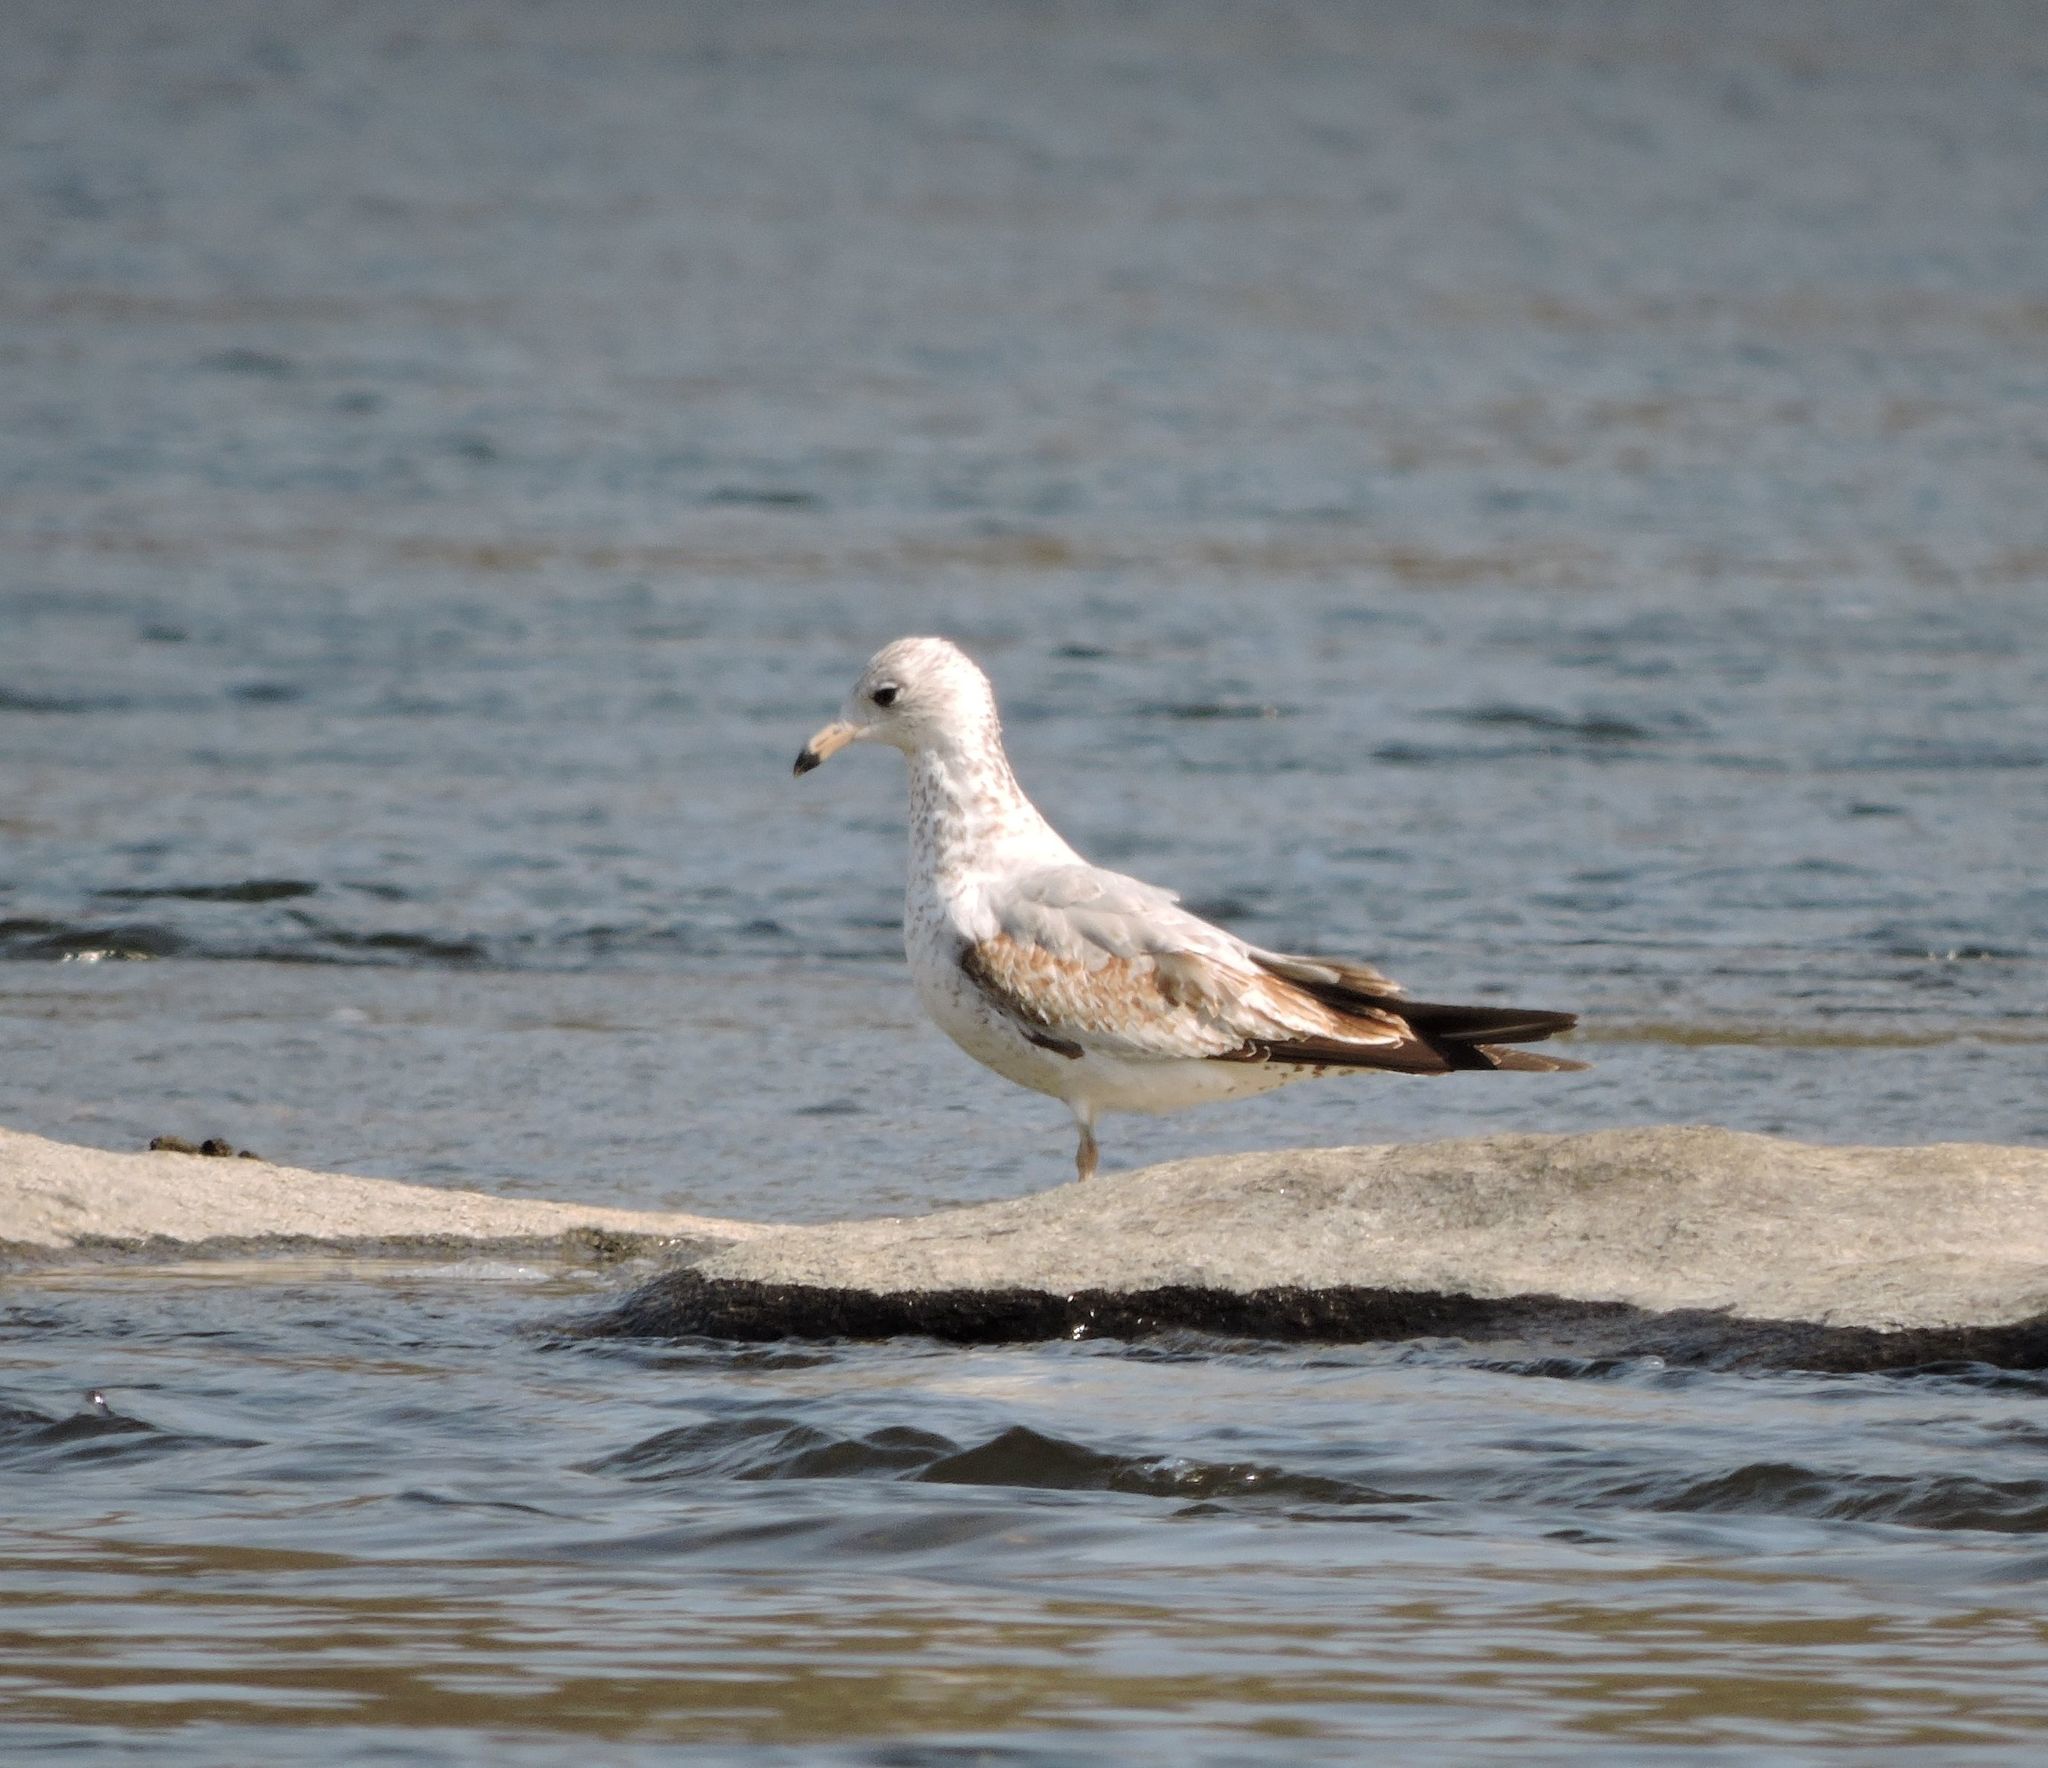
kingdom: Animalia
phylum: Chordata
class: Aves
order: Charadriiformes
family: Laridae
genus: Larus
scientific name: Larus delawarensis
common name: Ring-billed gull
